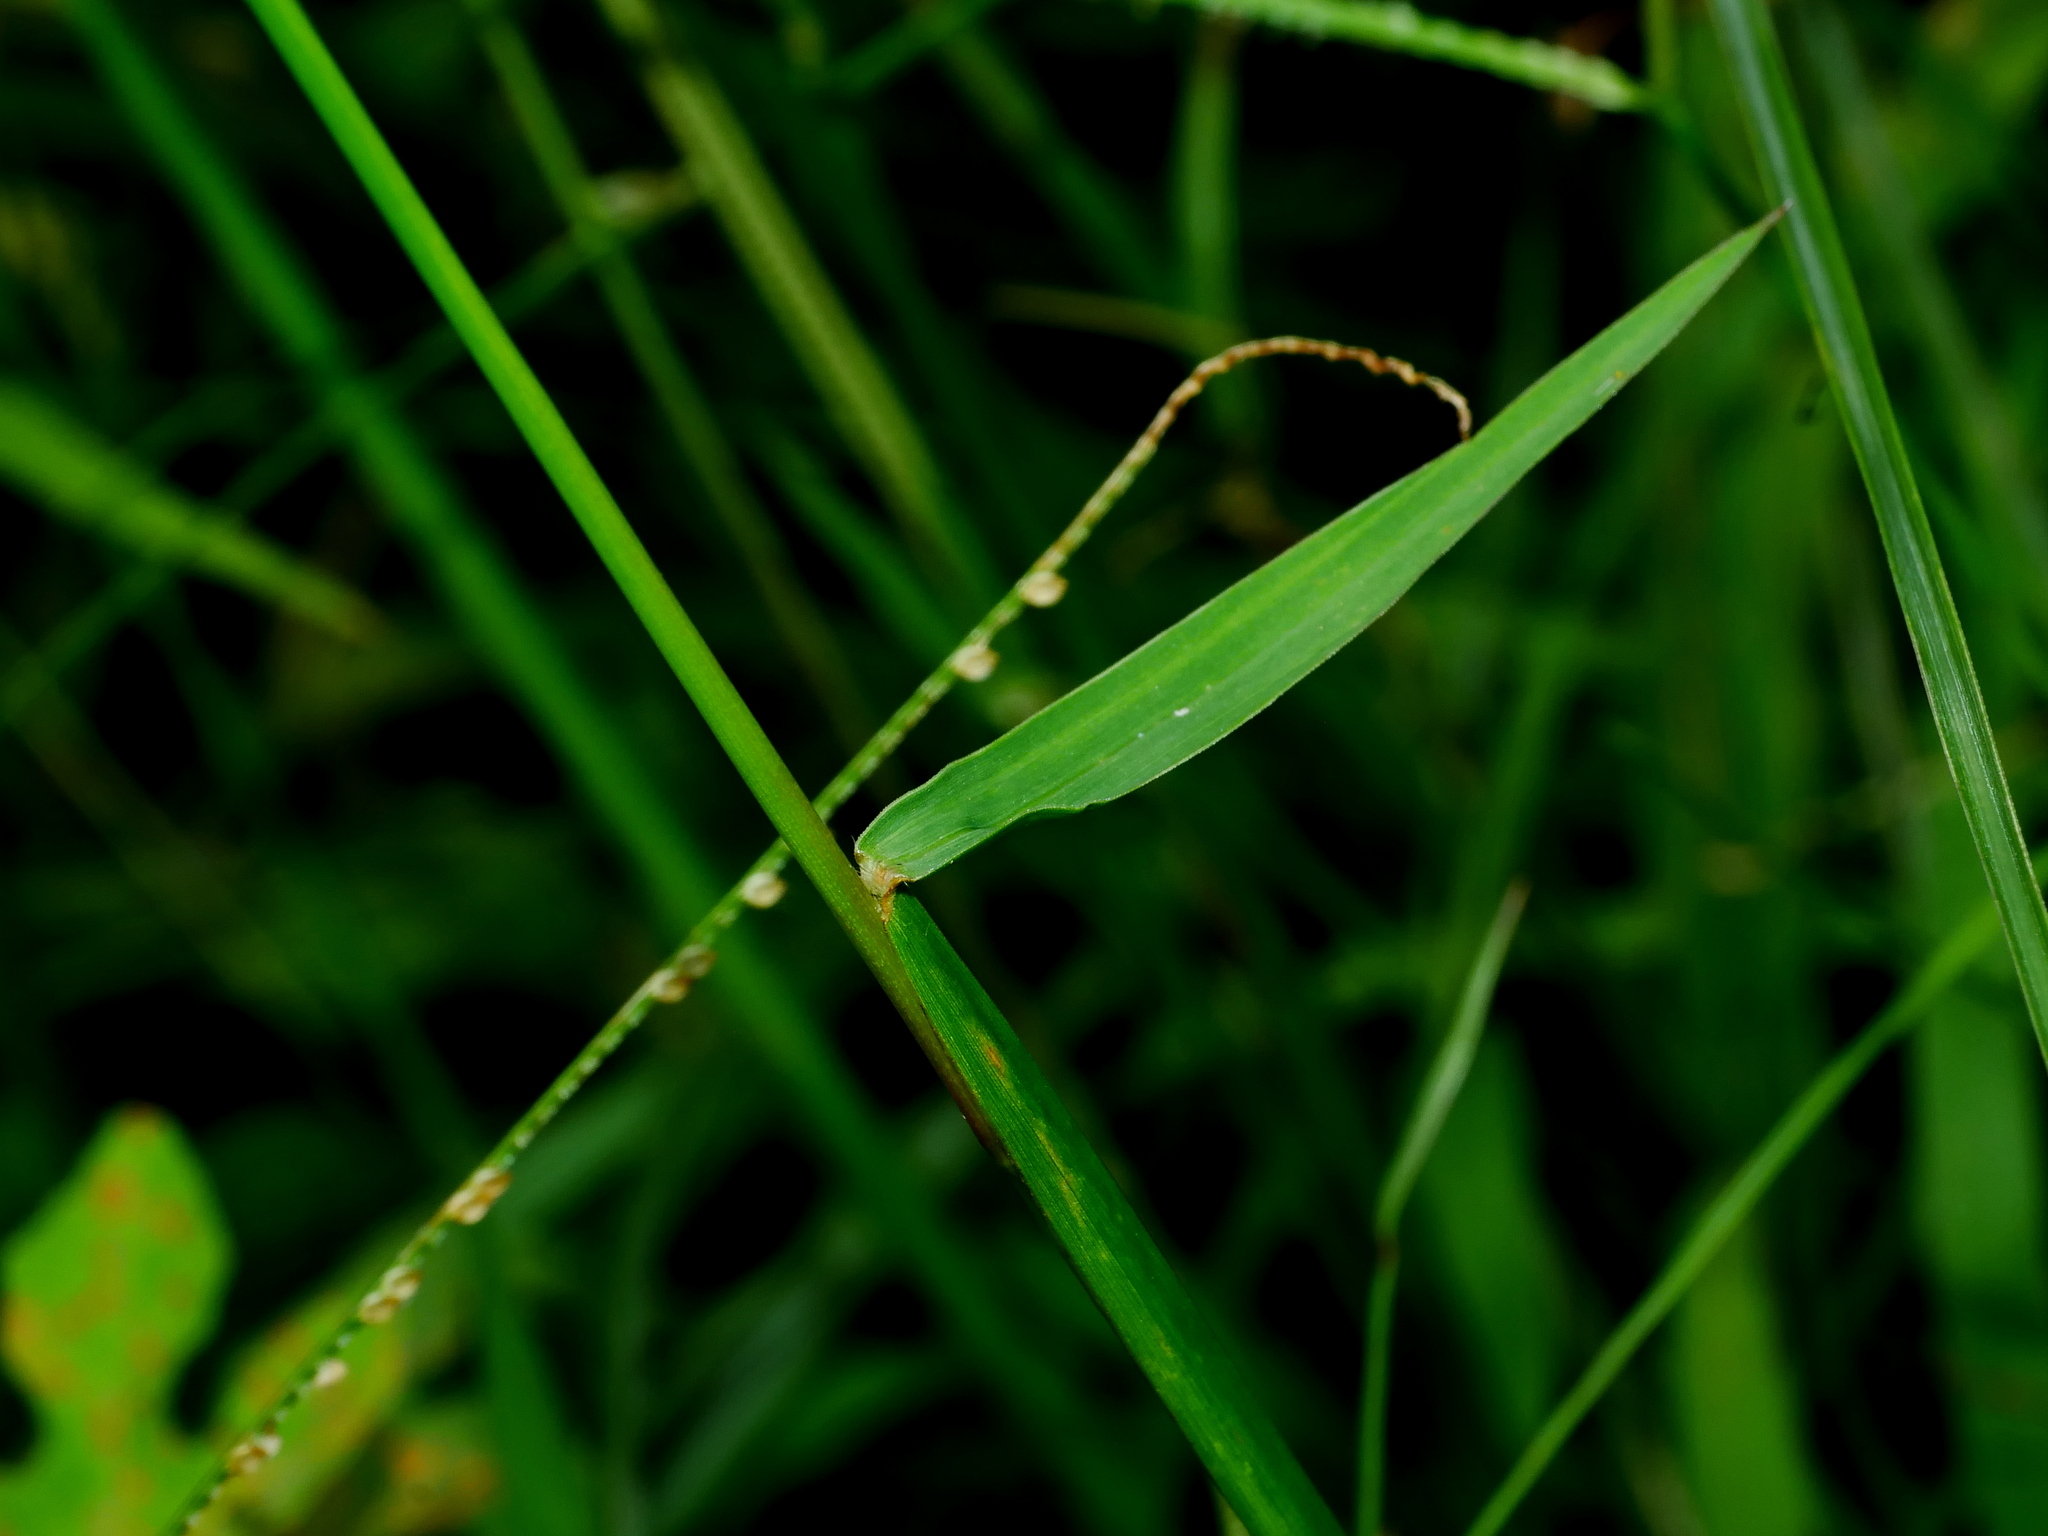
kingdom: Plantae
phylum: Tracheophyta
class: Liliopsida
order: Poales
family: Poaceae
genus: Paspalum
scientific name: Paspalum conjugatum
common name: Hilograss
